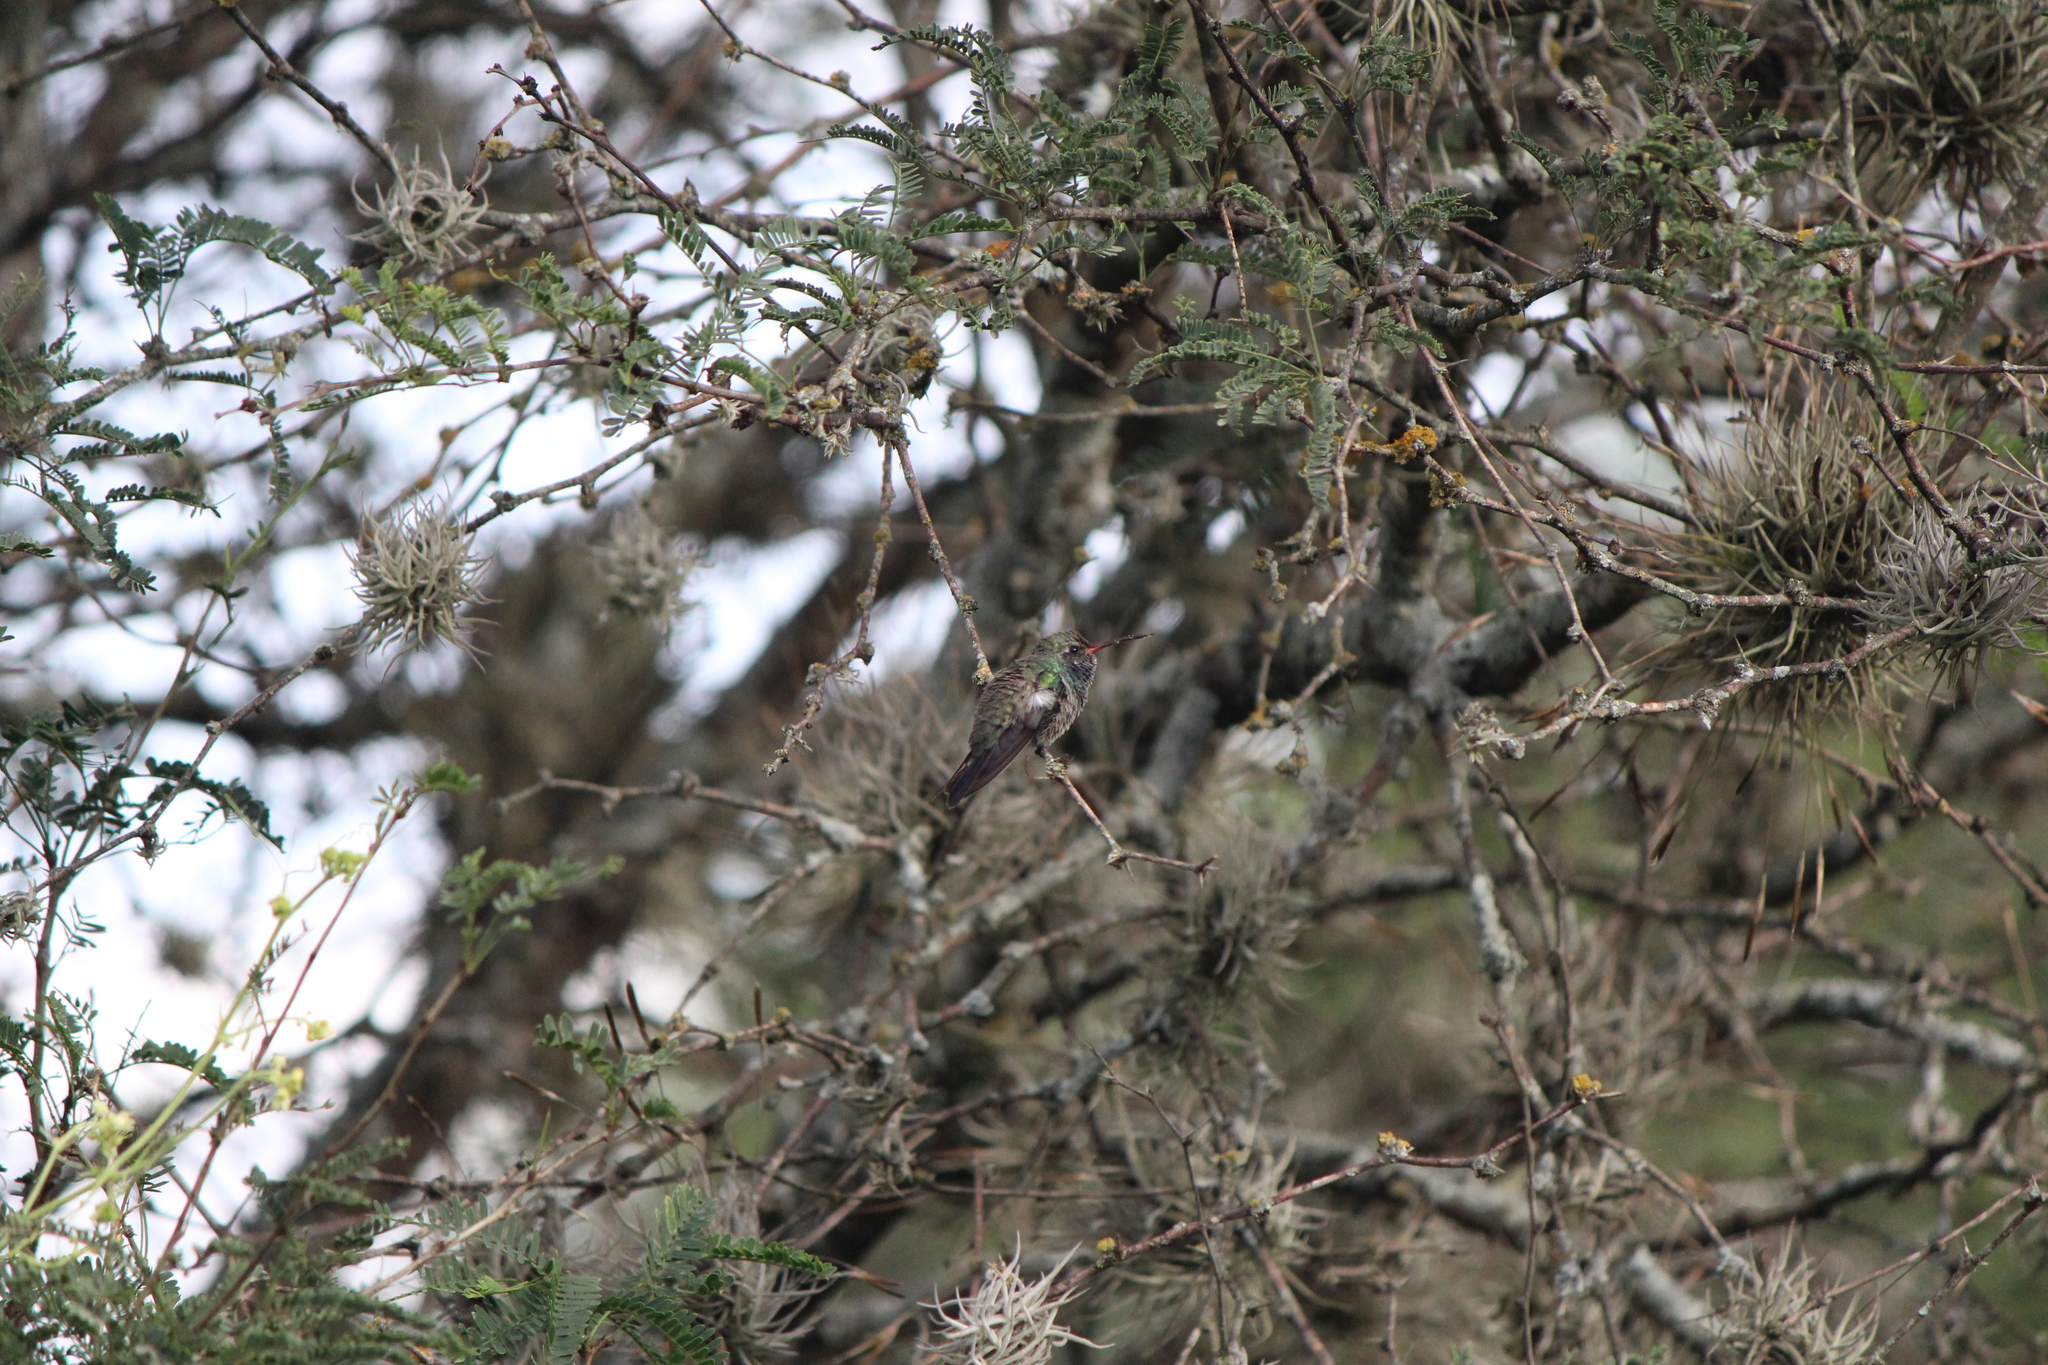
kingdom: Animalia
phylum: Chordata
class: Aves
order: Apodiformes
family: Trochilidae
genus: Cynanthus
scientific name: Cynanthus latirostris
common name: Broad-billed hummingbird
